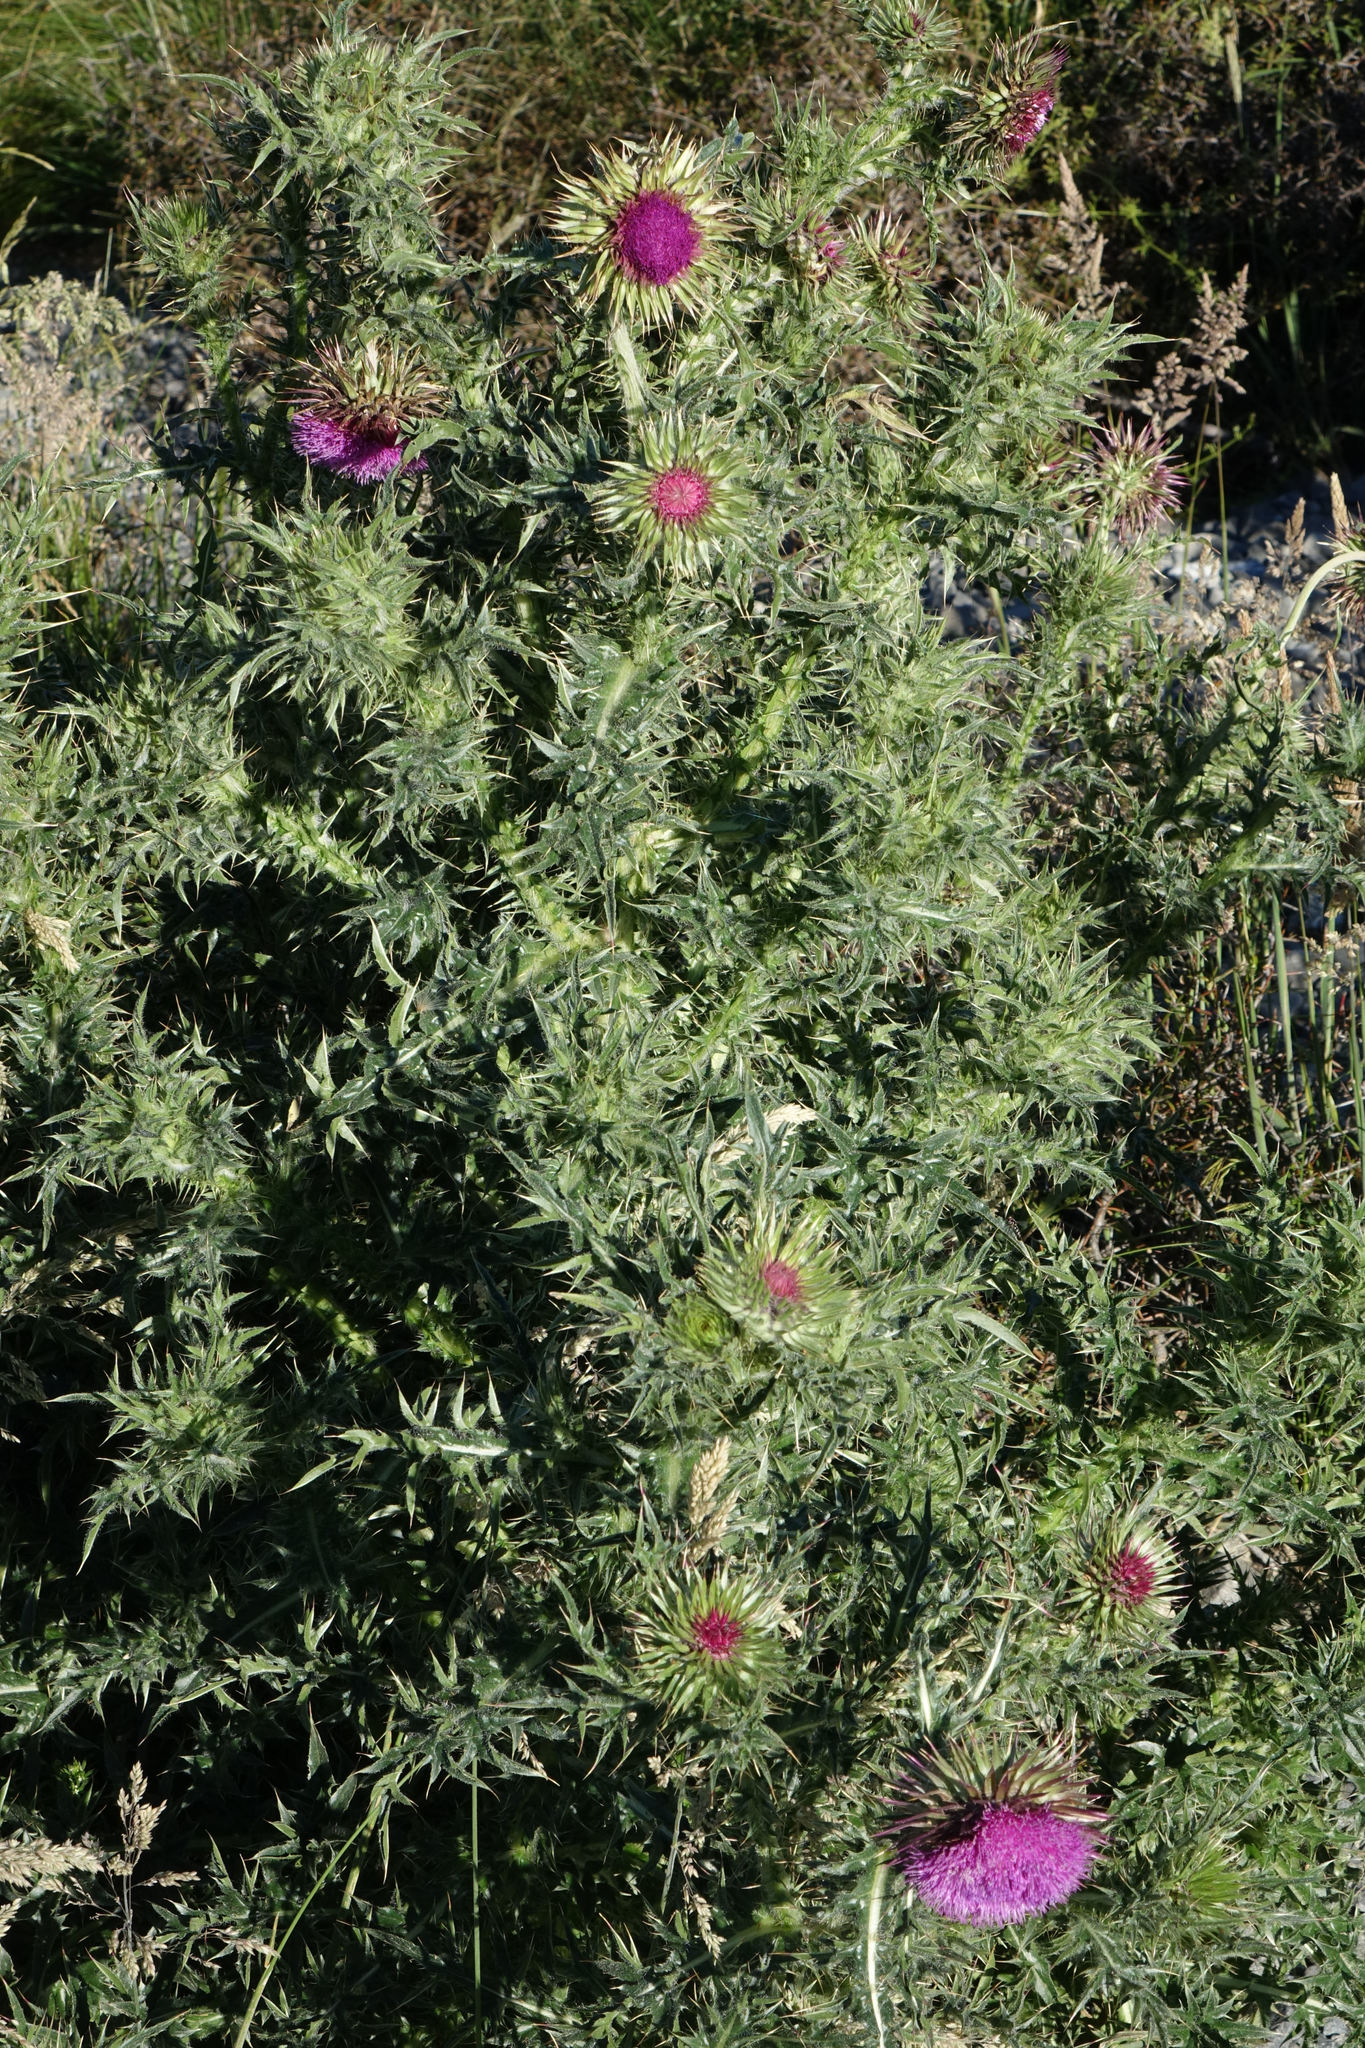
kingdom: Plantae
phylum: Tracheophyta
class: Magnoliopsida
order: Asterales
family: Asteraceae
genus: Carduus
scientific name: Carduus nutans
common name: Musk thistle
